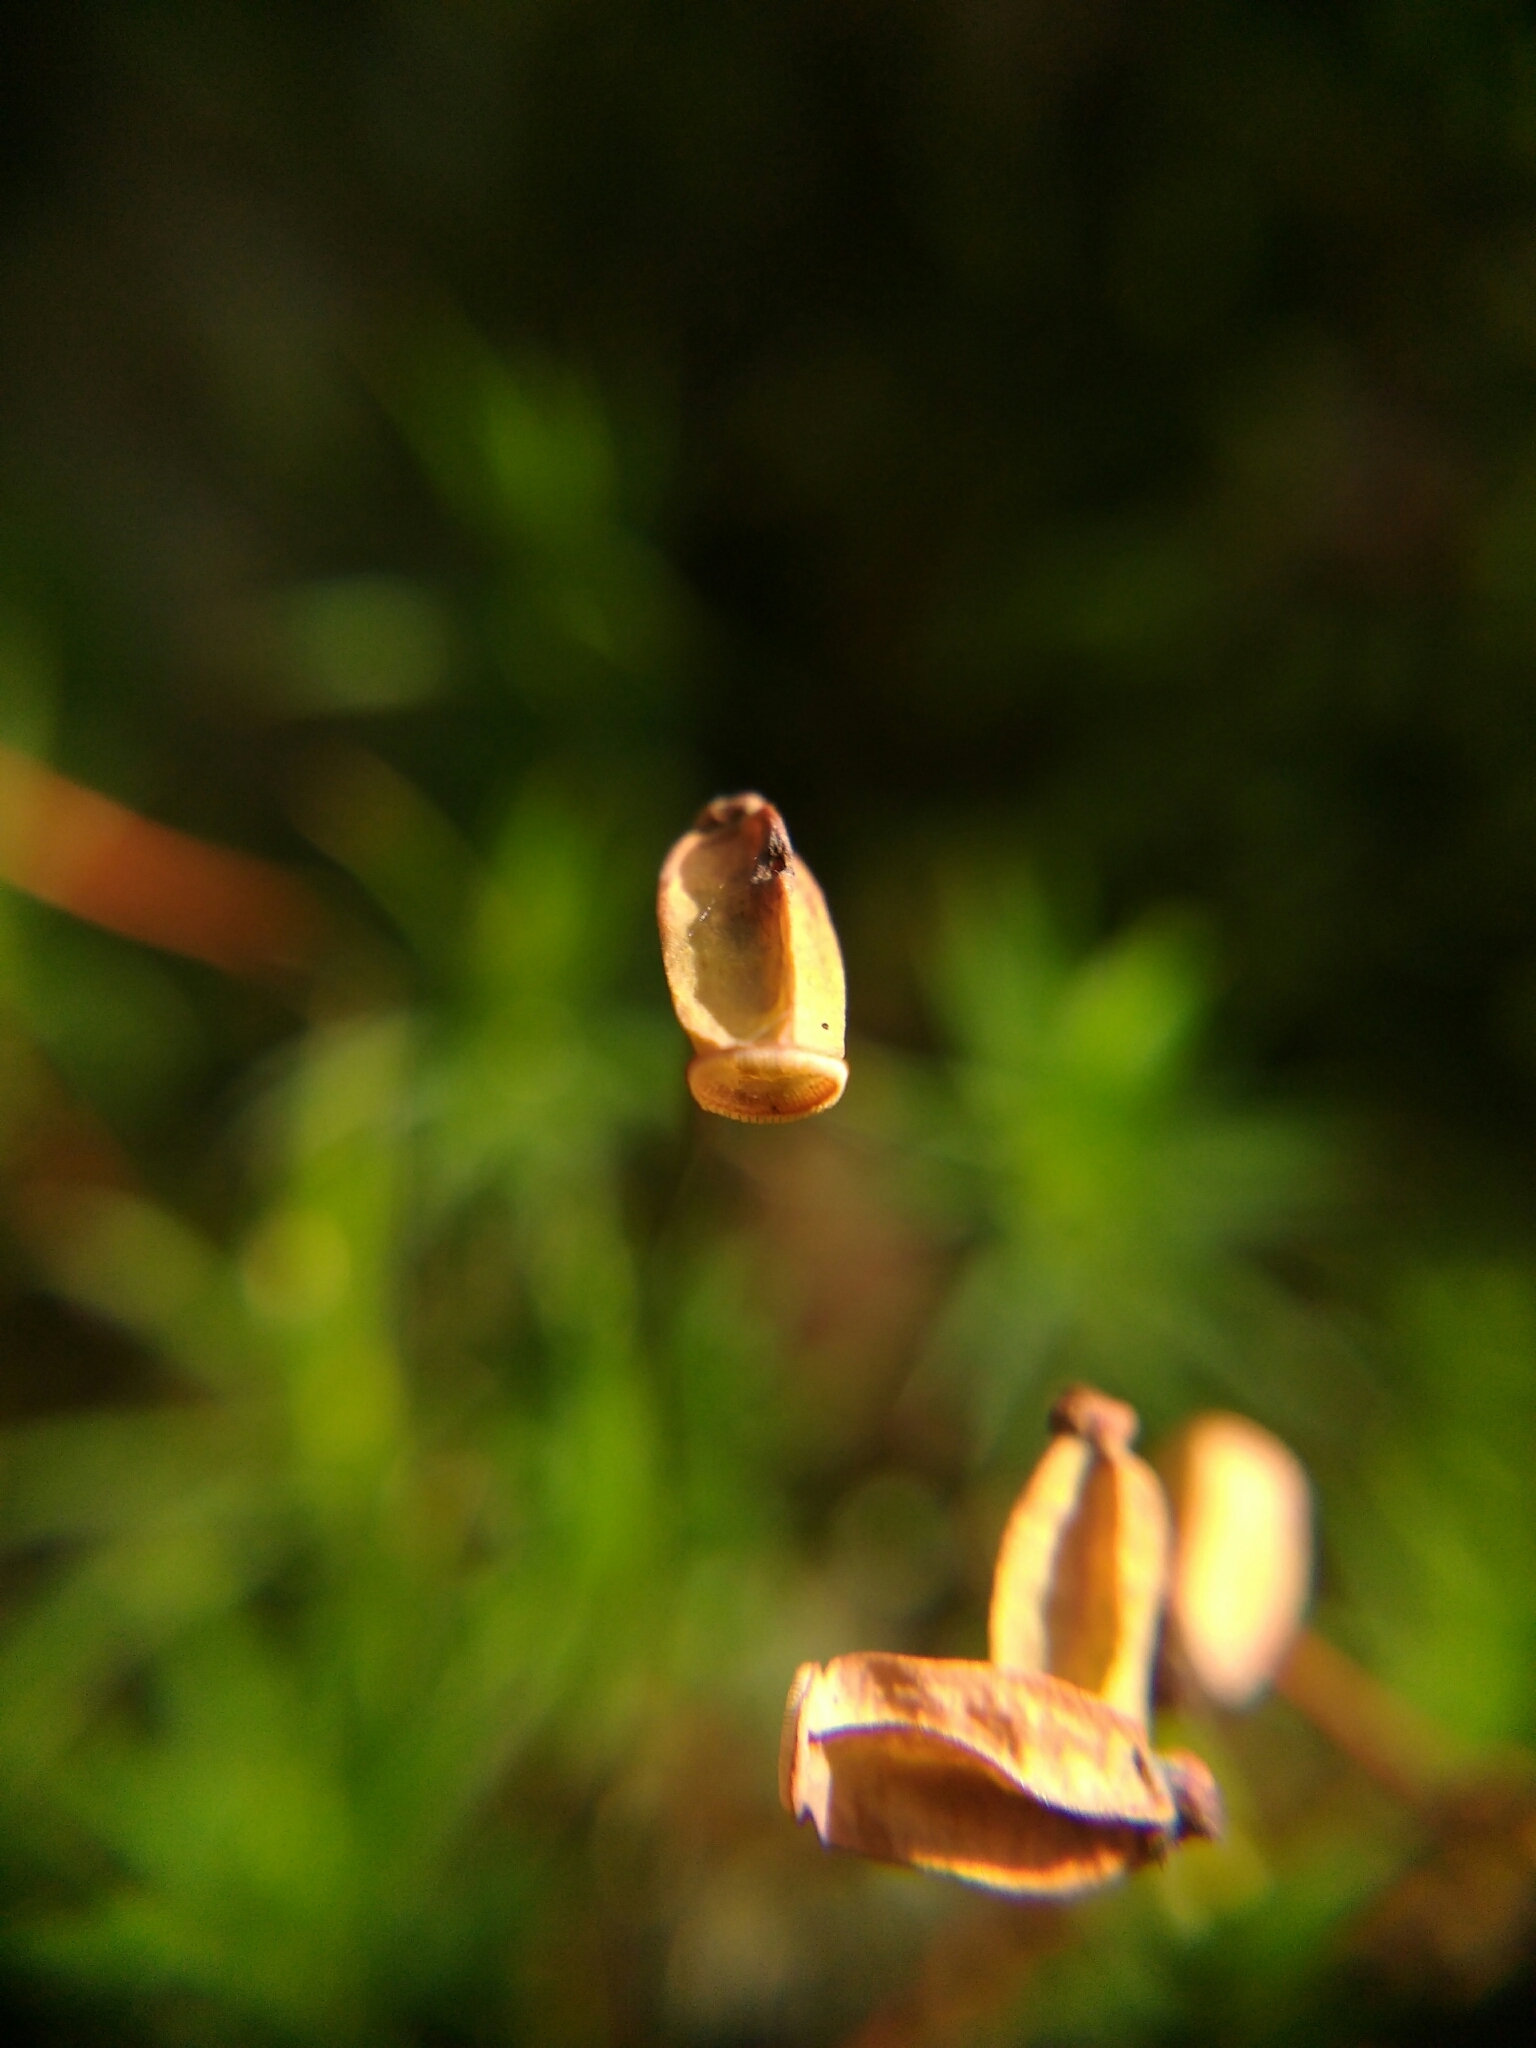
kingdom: Plantae
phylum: Bryophyta
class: Polytrichopsida
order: Polytrichales
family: Polytrichaceae
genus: Polytrichum
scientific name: Polytrichum formosum
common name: Bank haircap moss
